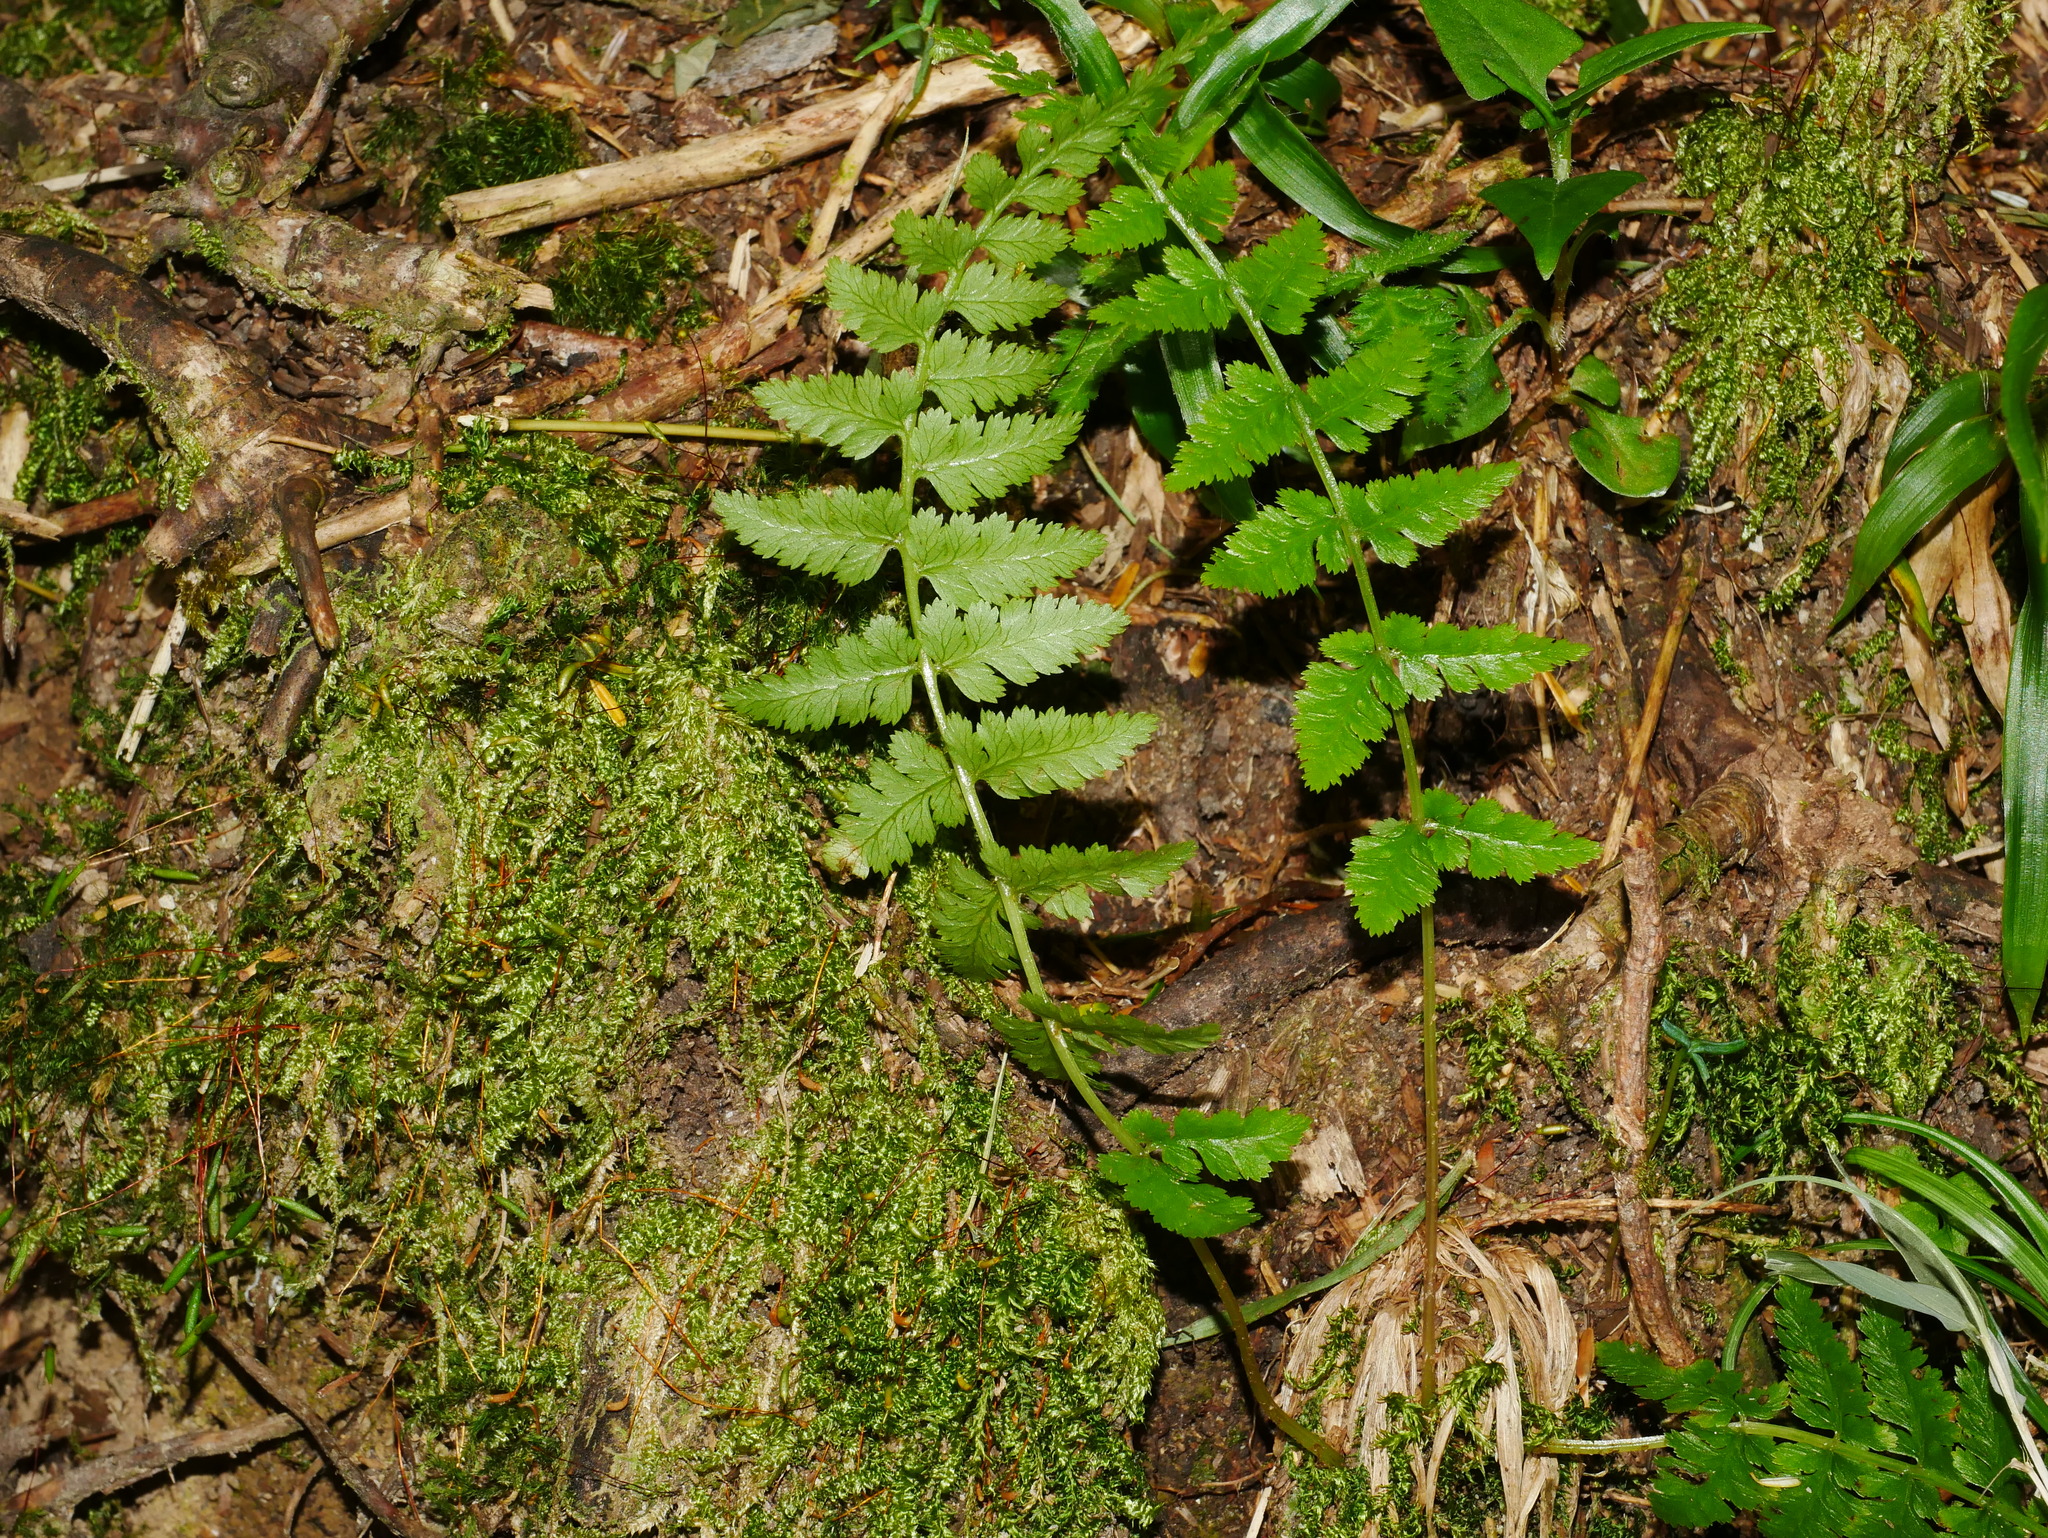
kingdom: Plantae
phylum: Tracheophyta
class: Polypodiopsida
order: Polypodiales
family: Athyriaceae
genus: Athyrium
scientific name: Athyrium oppositipennum
